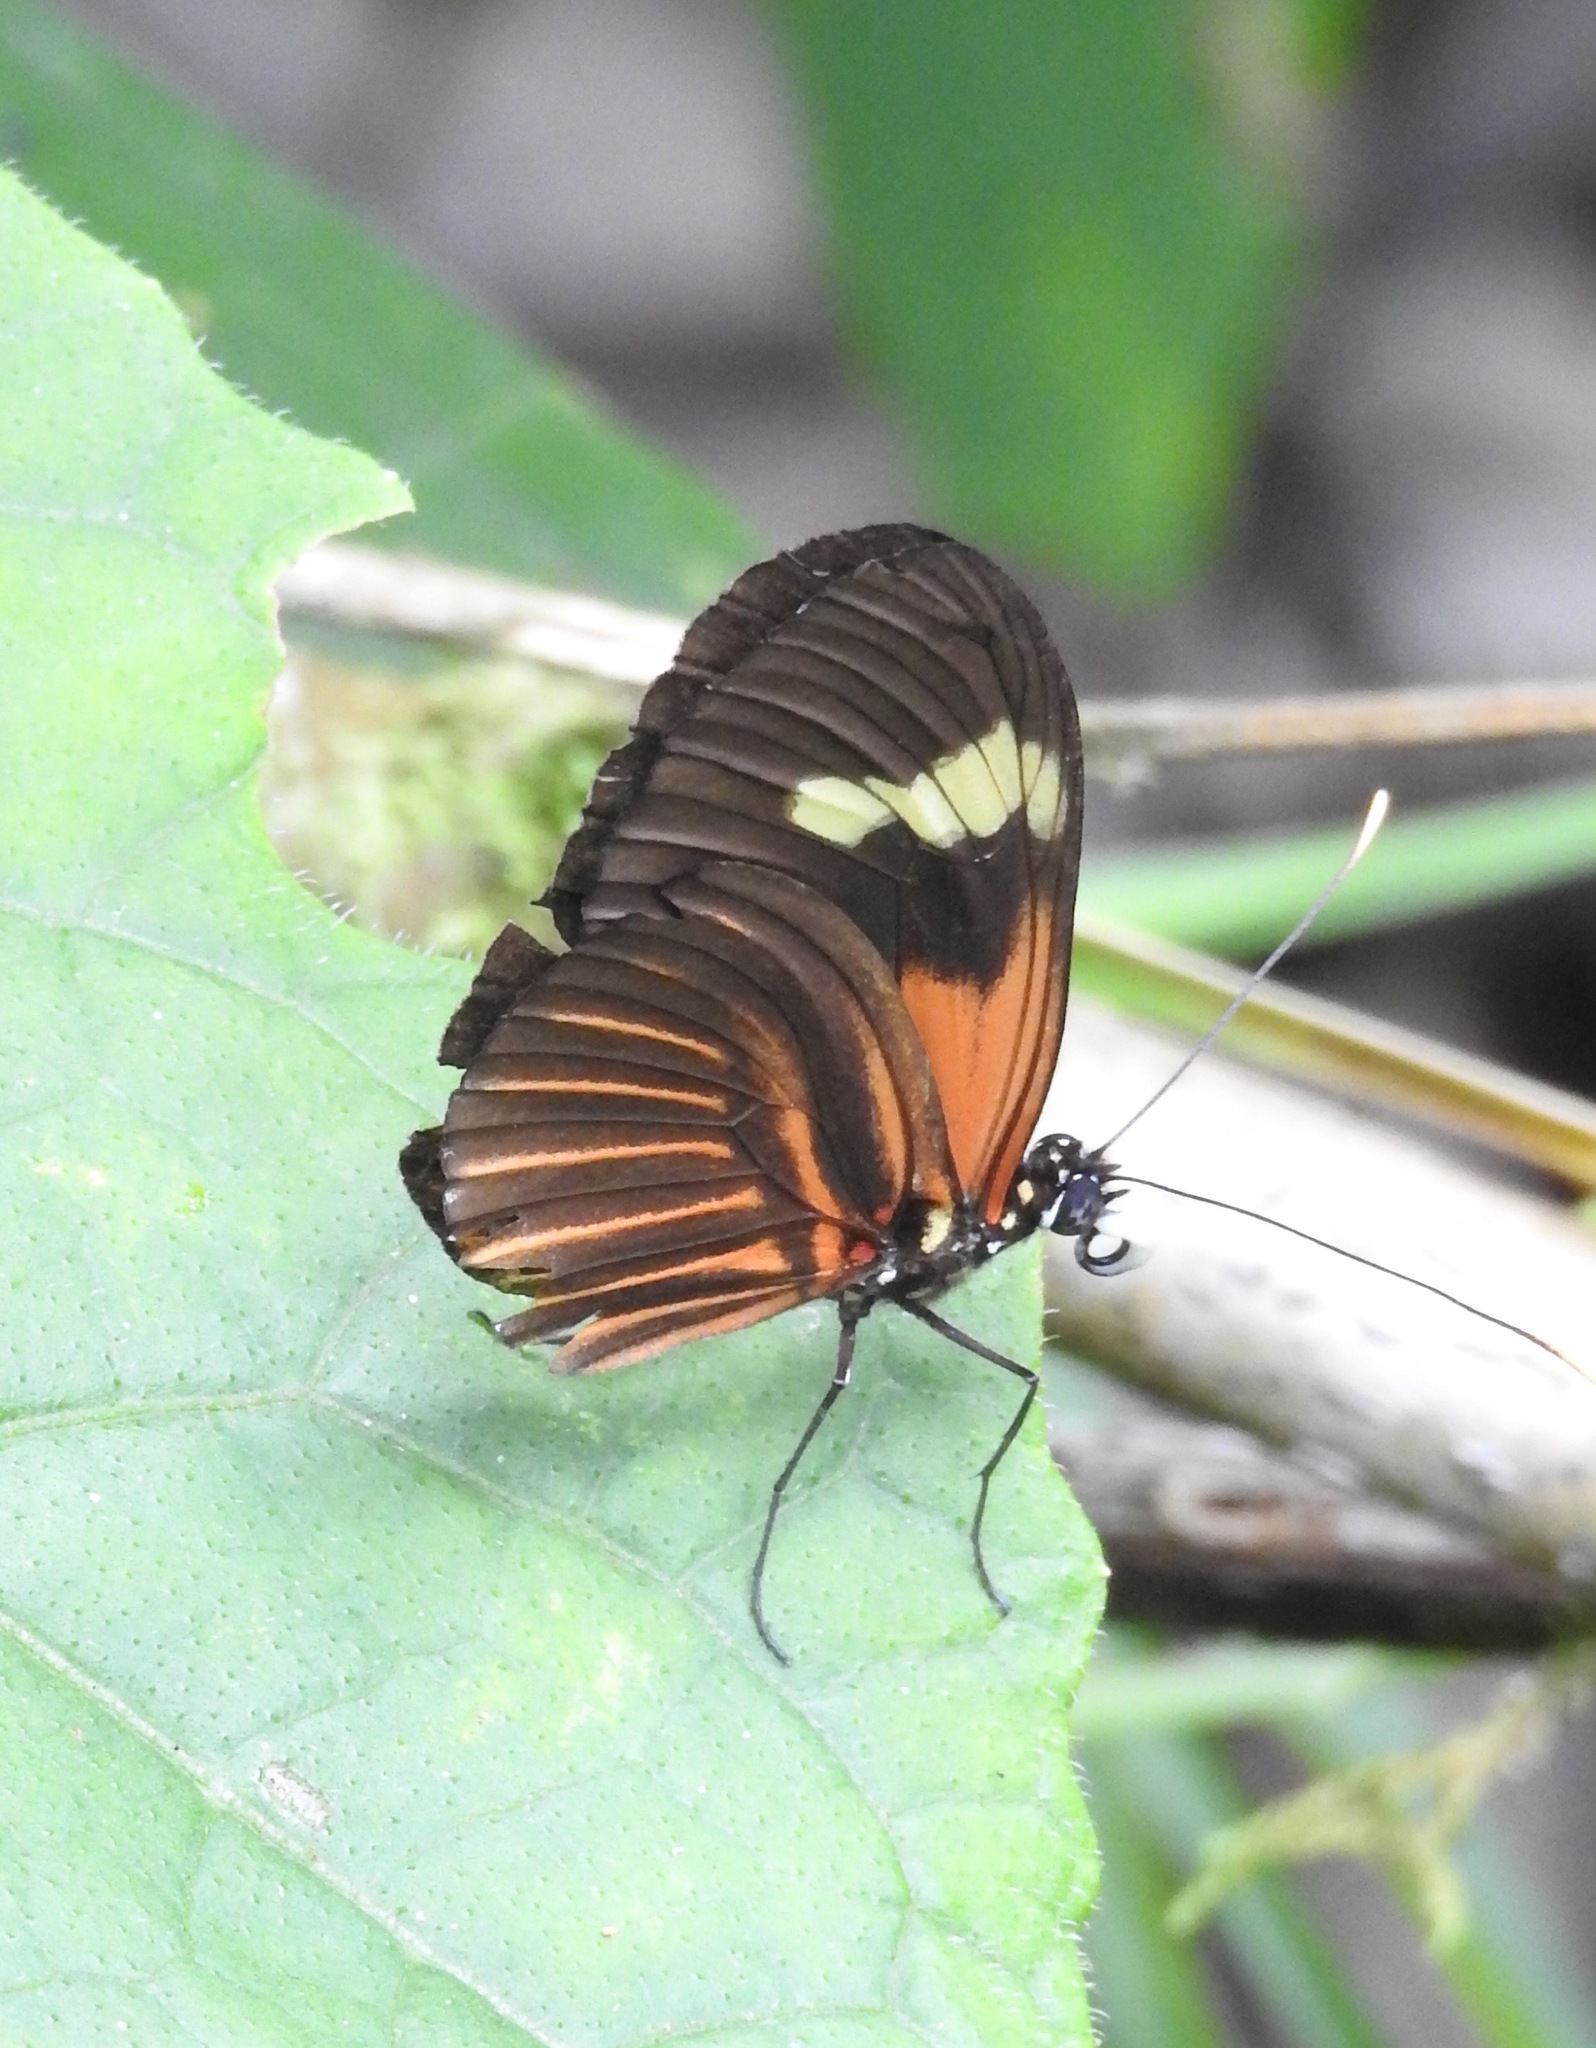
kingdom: Animalia
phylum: Arthropoda
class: Insecta
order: Lepidoptera
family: Nymphalidae
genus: Heliconius
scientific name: Heliconius melpomene
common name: Postman
